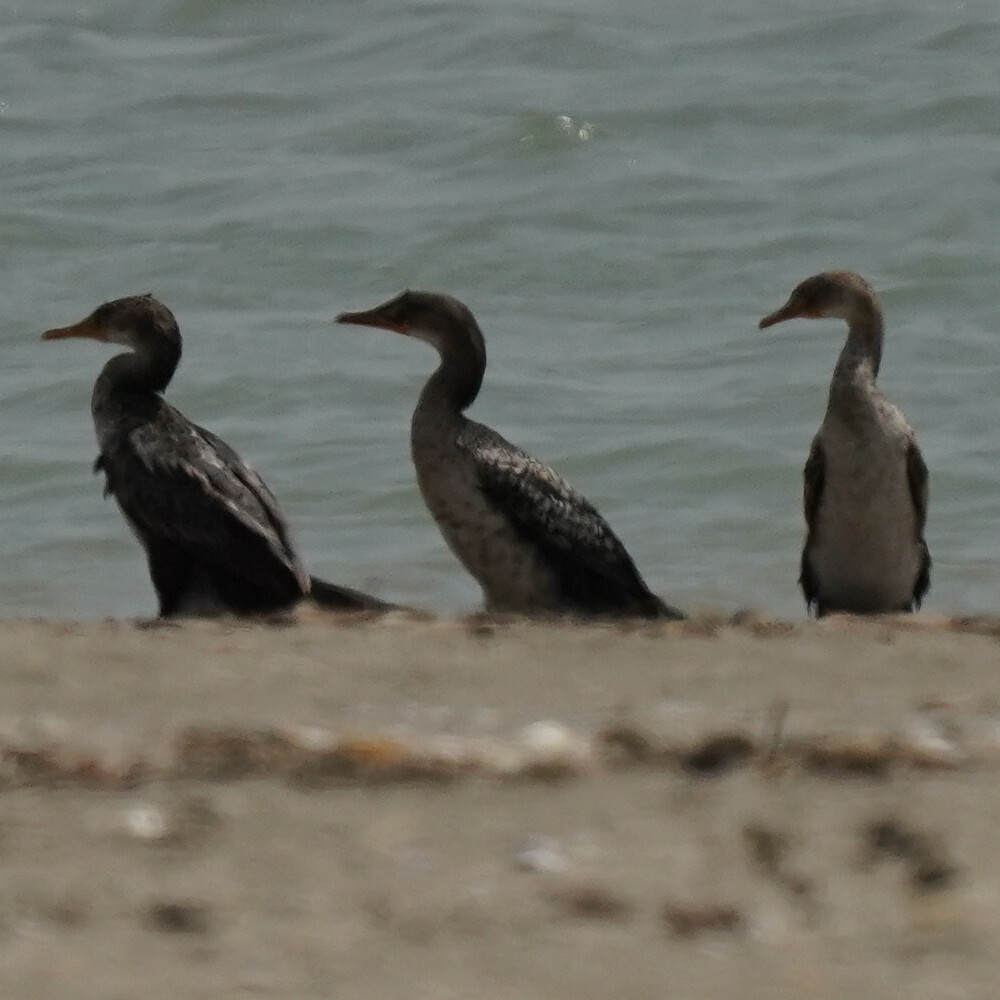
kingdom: Animalia
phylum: Chordata
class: Aves
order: Suliformes
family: Phalacrocoracidae
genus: Microcarbo
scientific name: Microcarbo africanus
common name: Long-tailed cormorant
